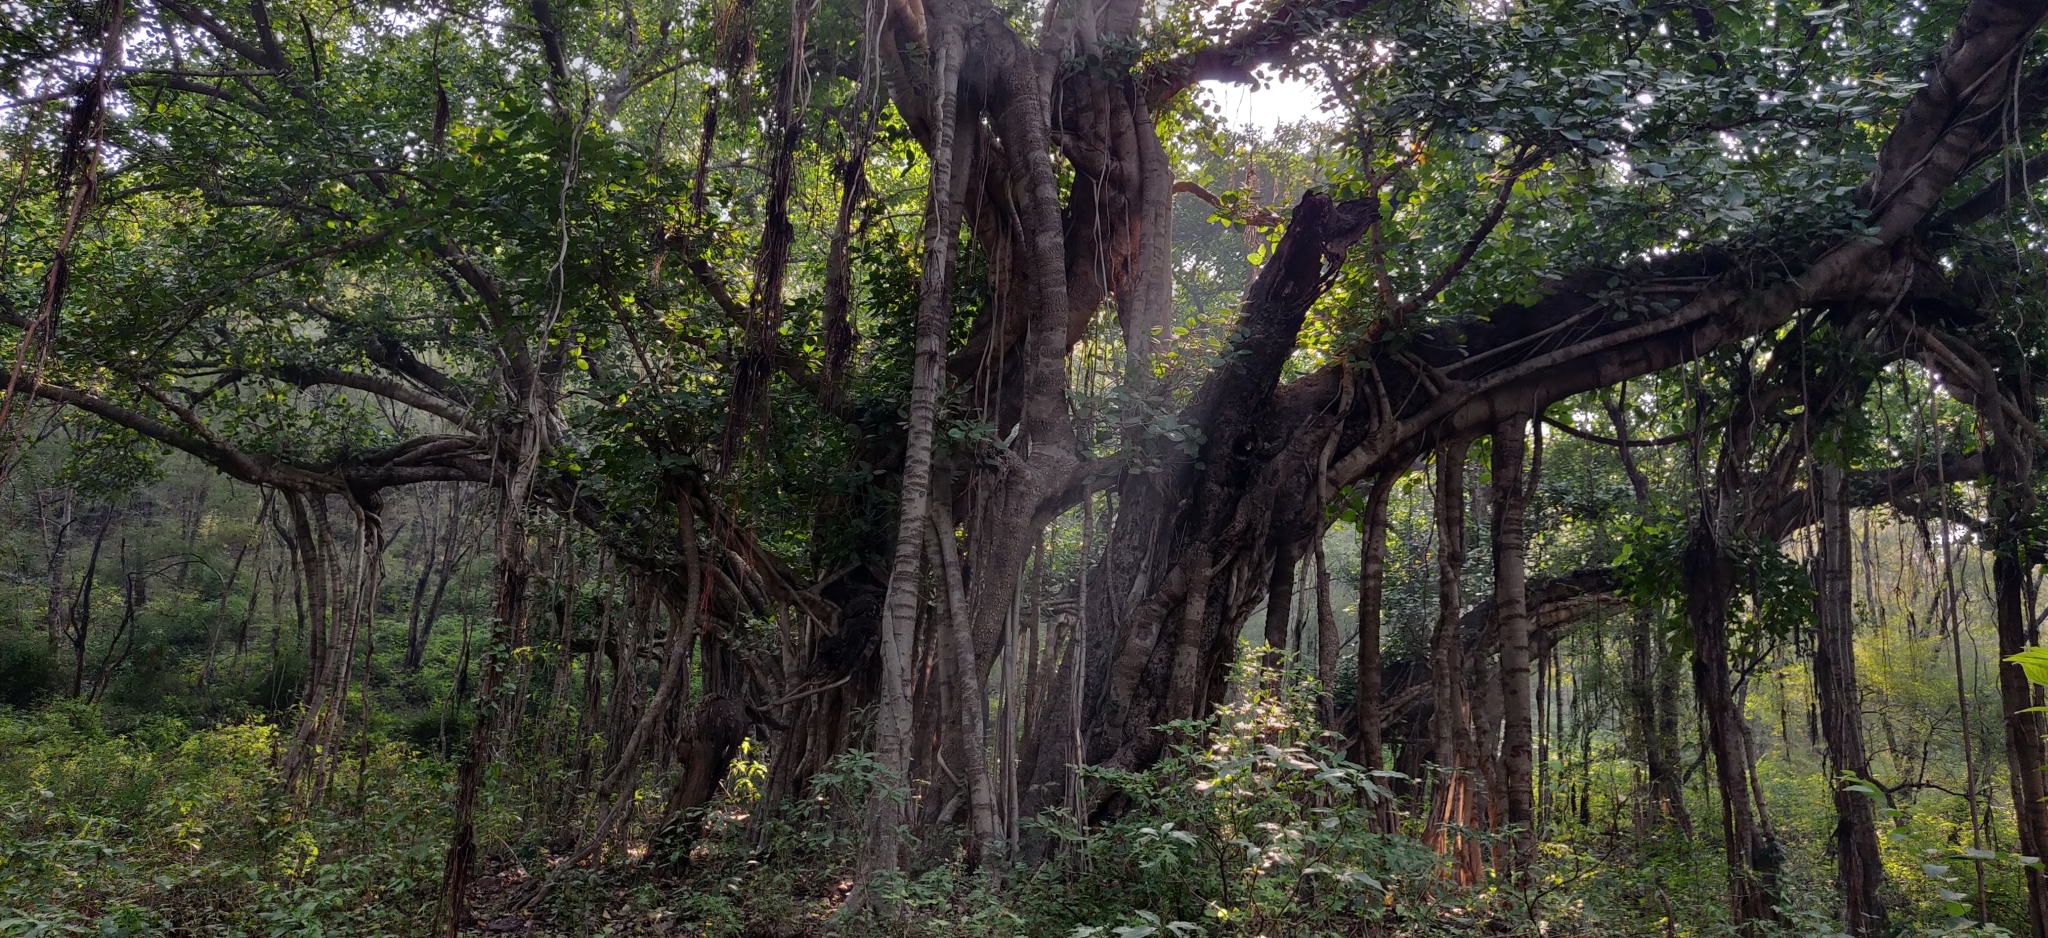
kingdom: Plantae
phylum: Tracheophyta
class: Magnoliopsida
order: Rosales
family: Moraceae
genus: Ficus
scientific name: Ficus benghalensis
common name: Indian banyan
